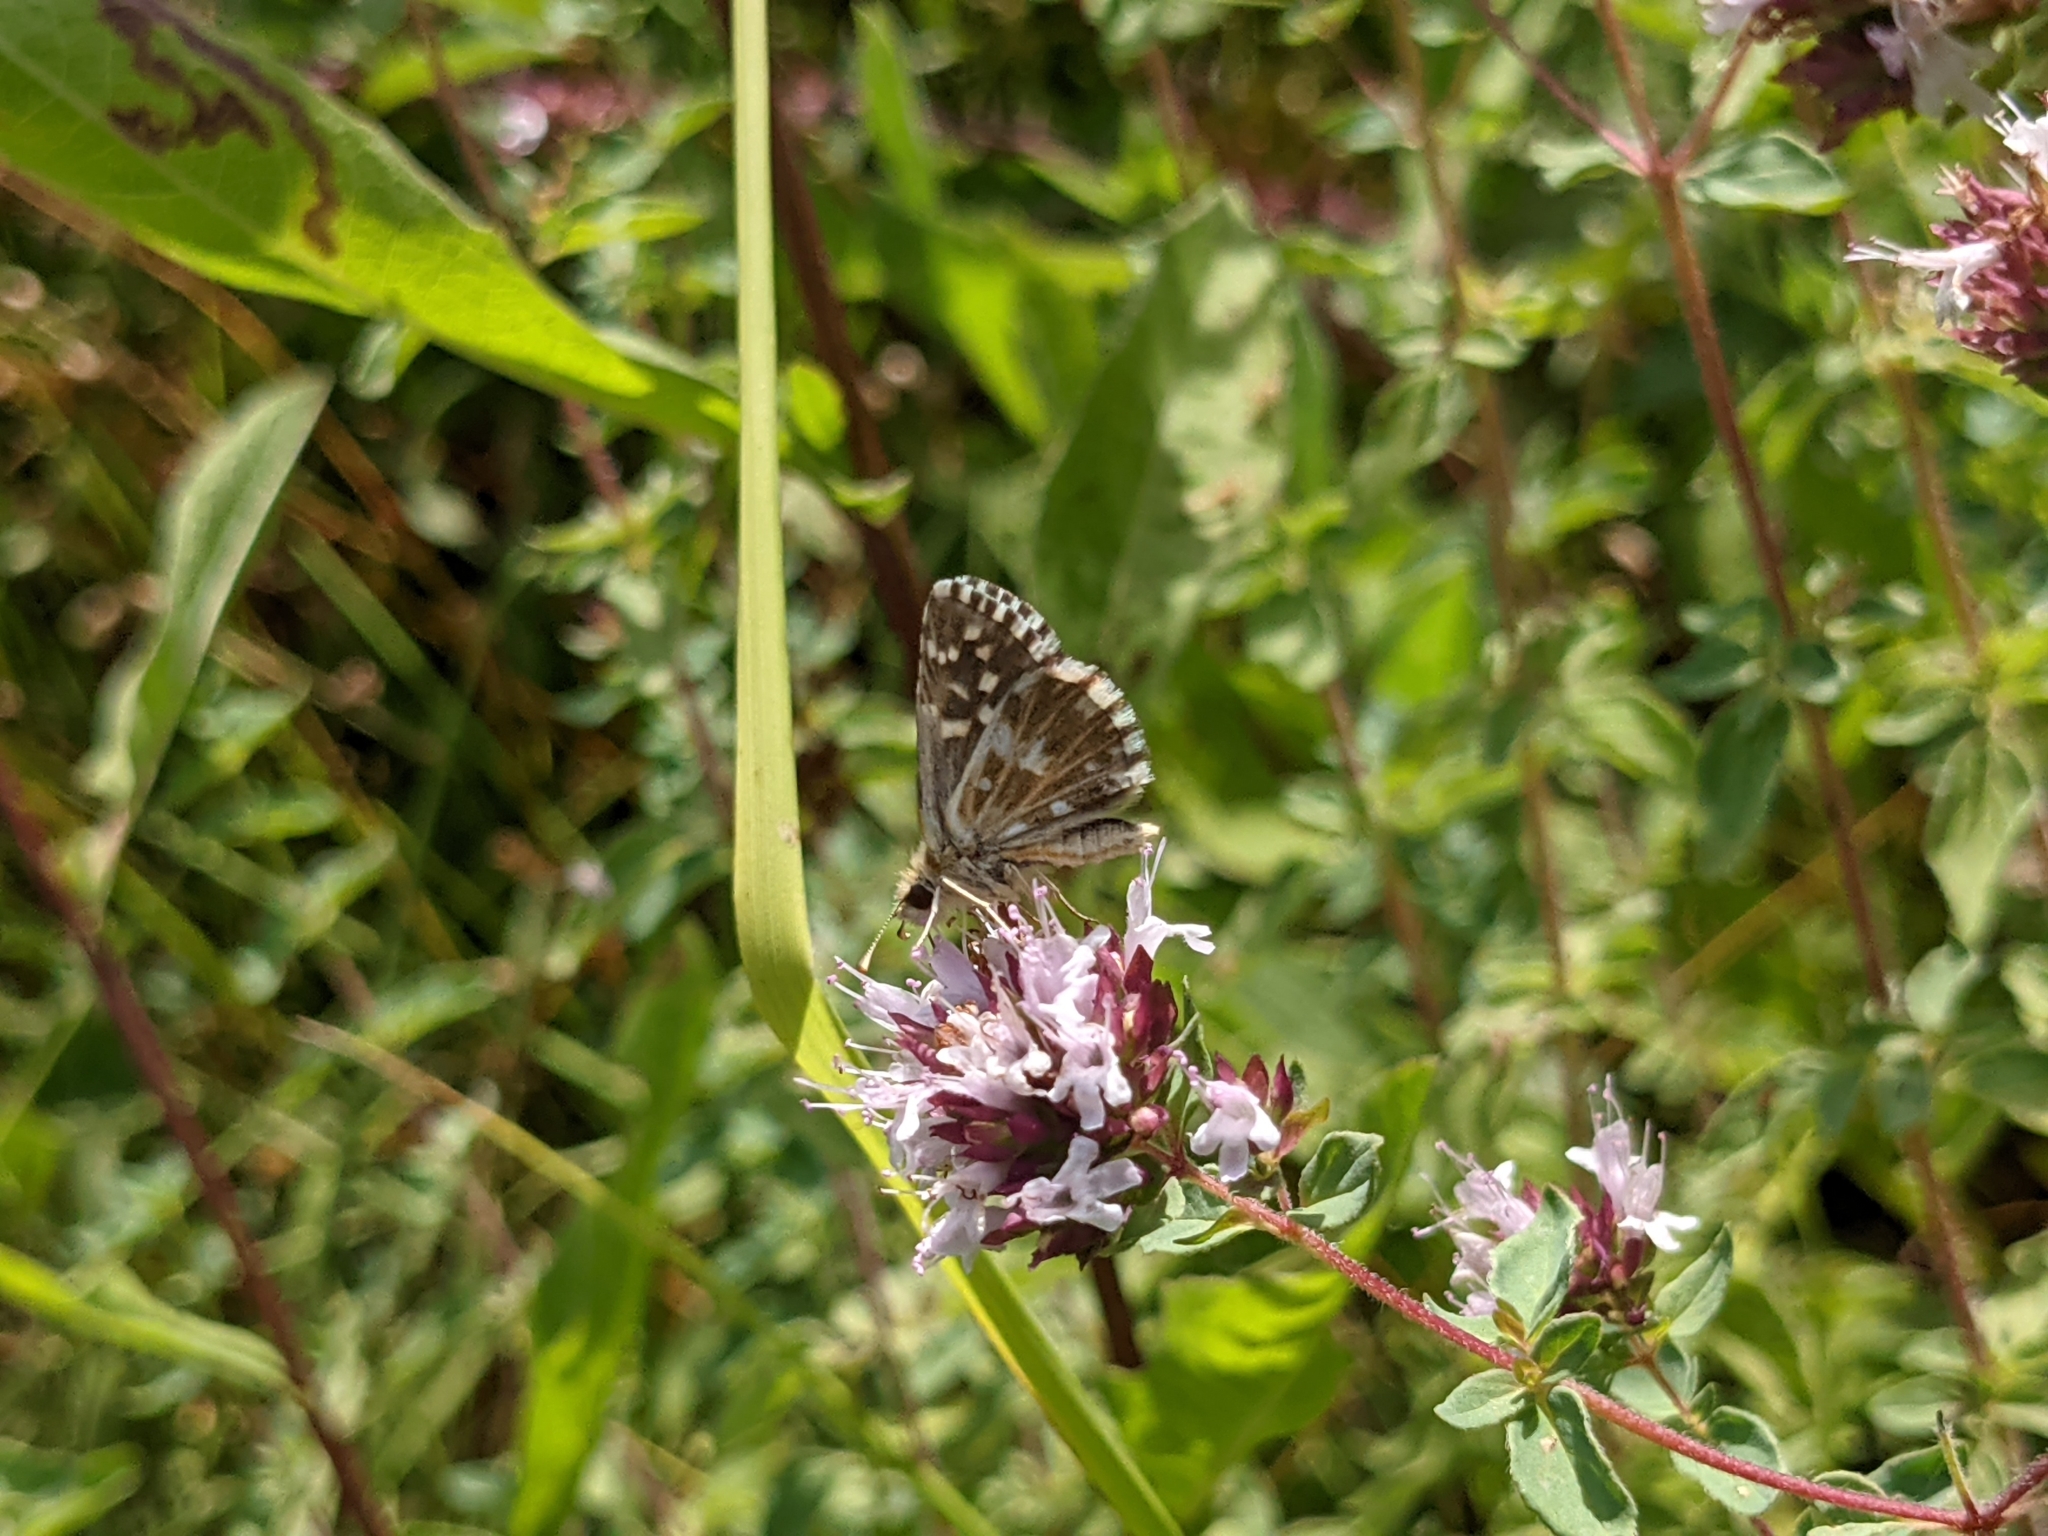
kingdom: Animalia
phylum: Arthropoda
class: Insecta
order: Lepidoptera
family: Hesperiidae
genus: Pyrgus
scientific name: Pyrgus malvoides
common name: Southern grizzled skipper
